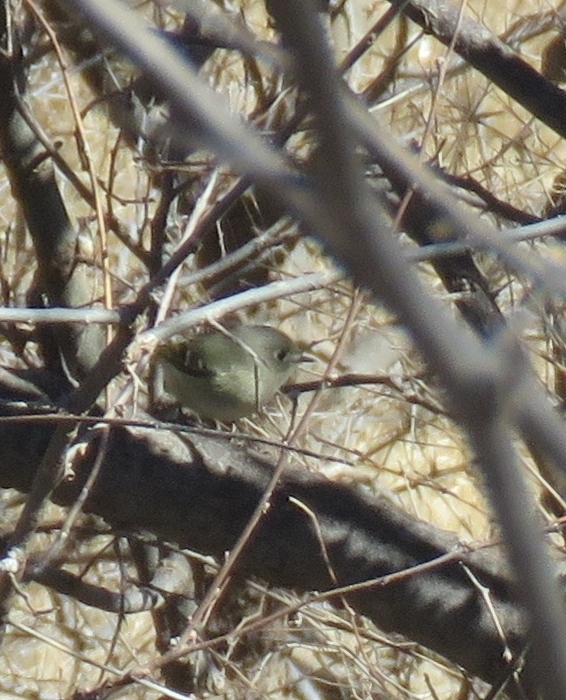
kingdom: Animalia
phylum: Chordata
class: Aves
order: Passeriformes
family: Regulidae
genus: Regulus
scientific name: Regulus calendula
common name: Ruby-crowned kinglet
